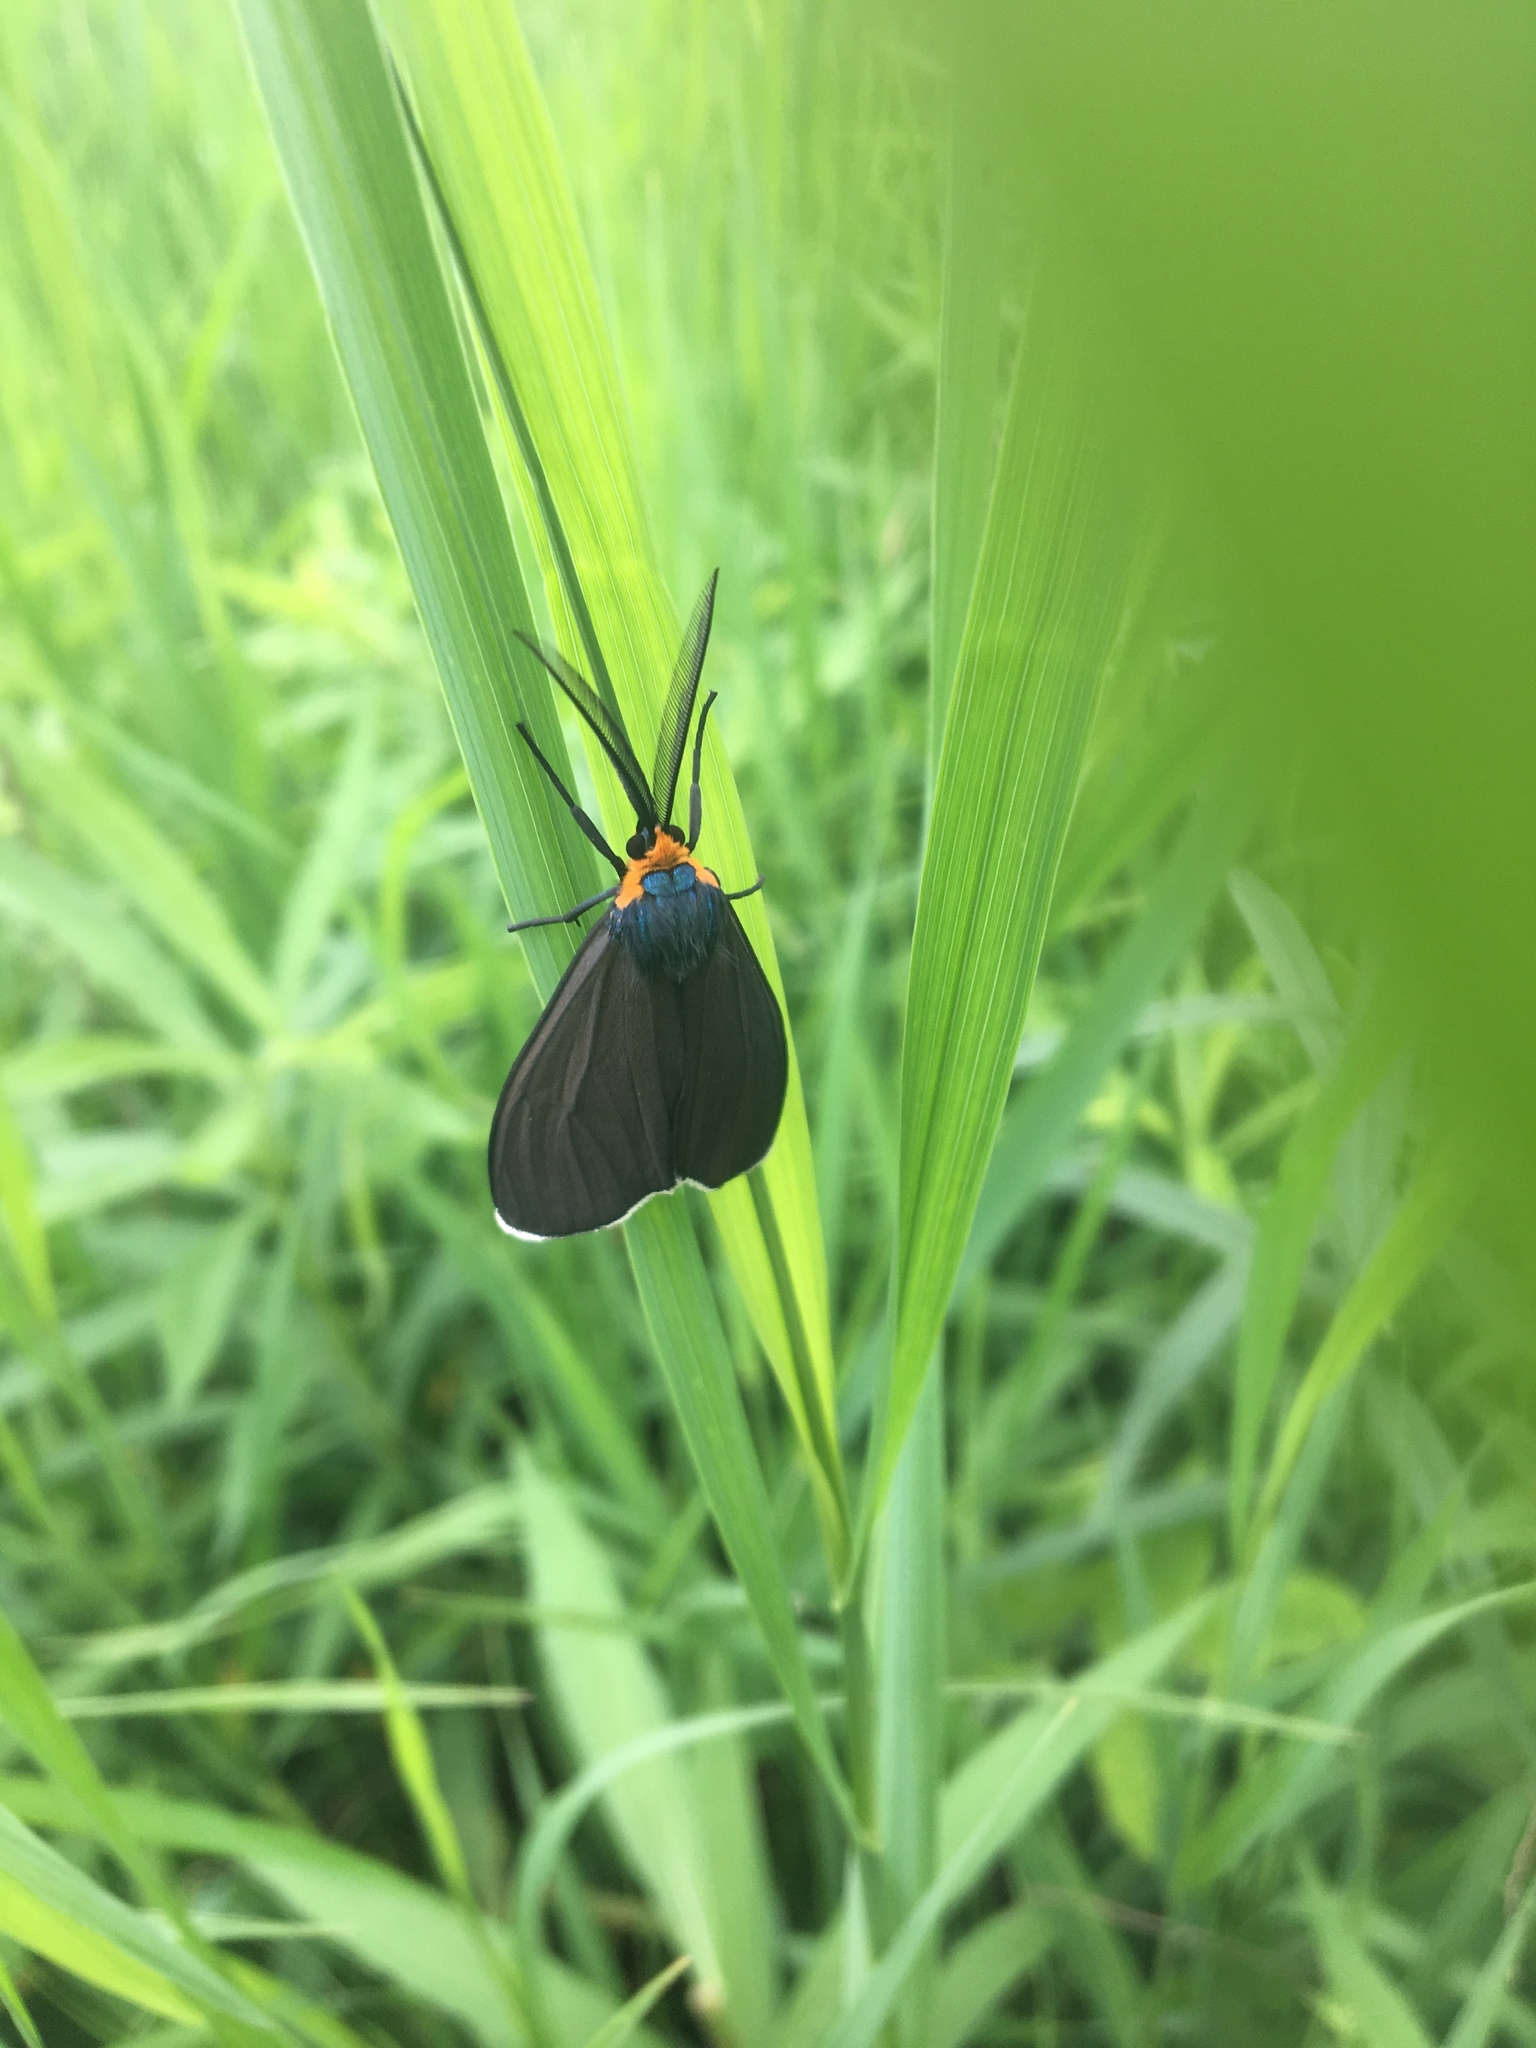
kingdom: Animalia
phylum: Arthropoda
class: Insecta
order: Lepidoptera
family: Erebidae
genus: Ctenucha
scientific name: Ctenucha virginica
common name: Virginia ctenucha moth
